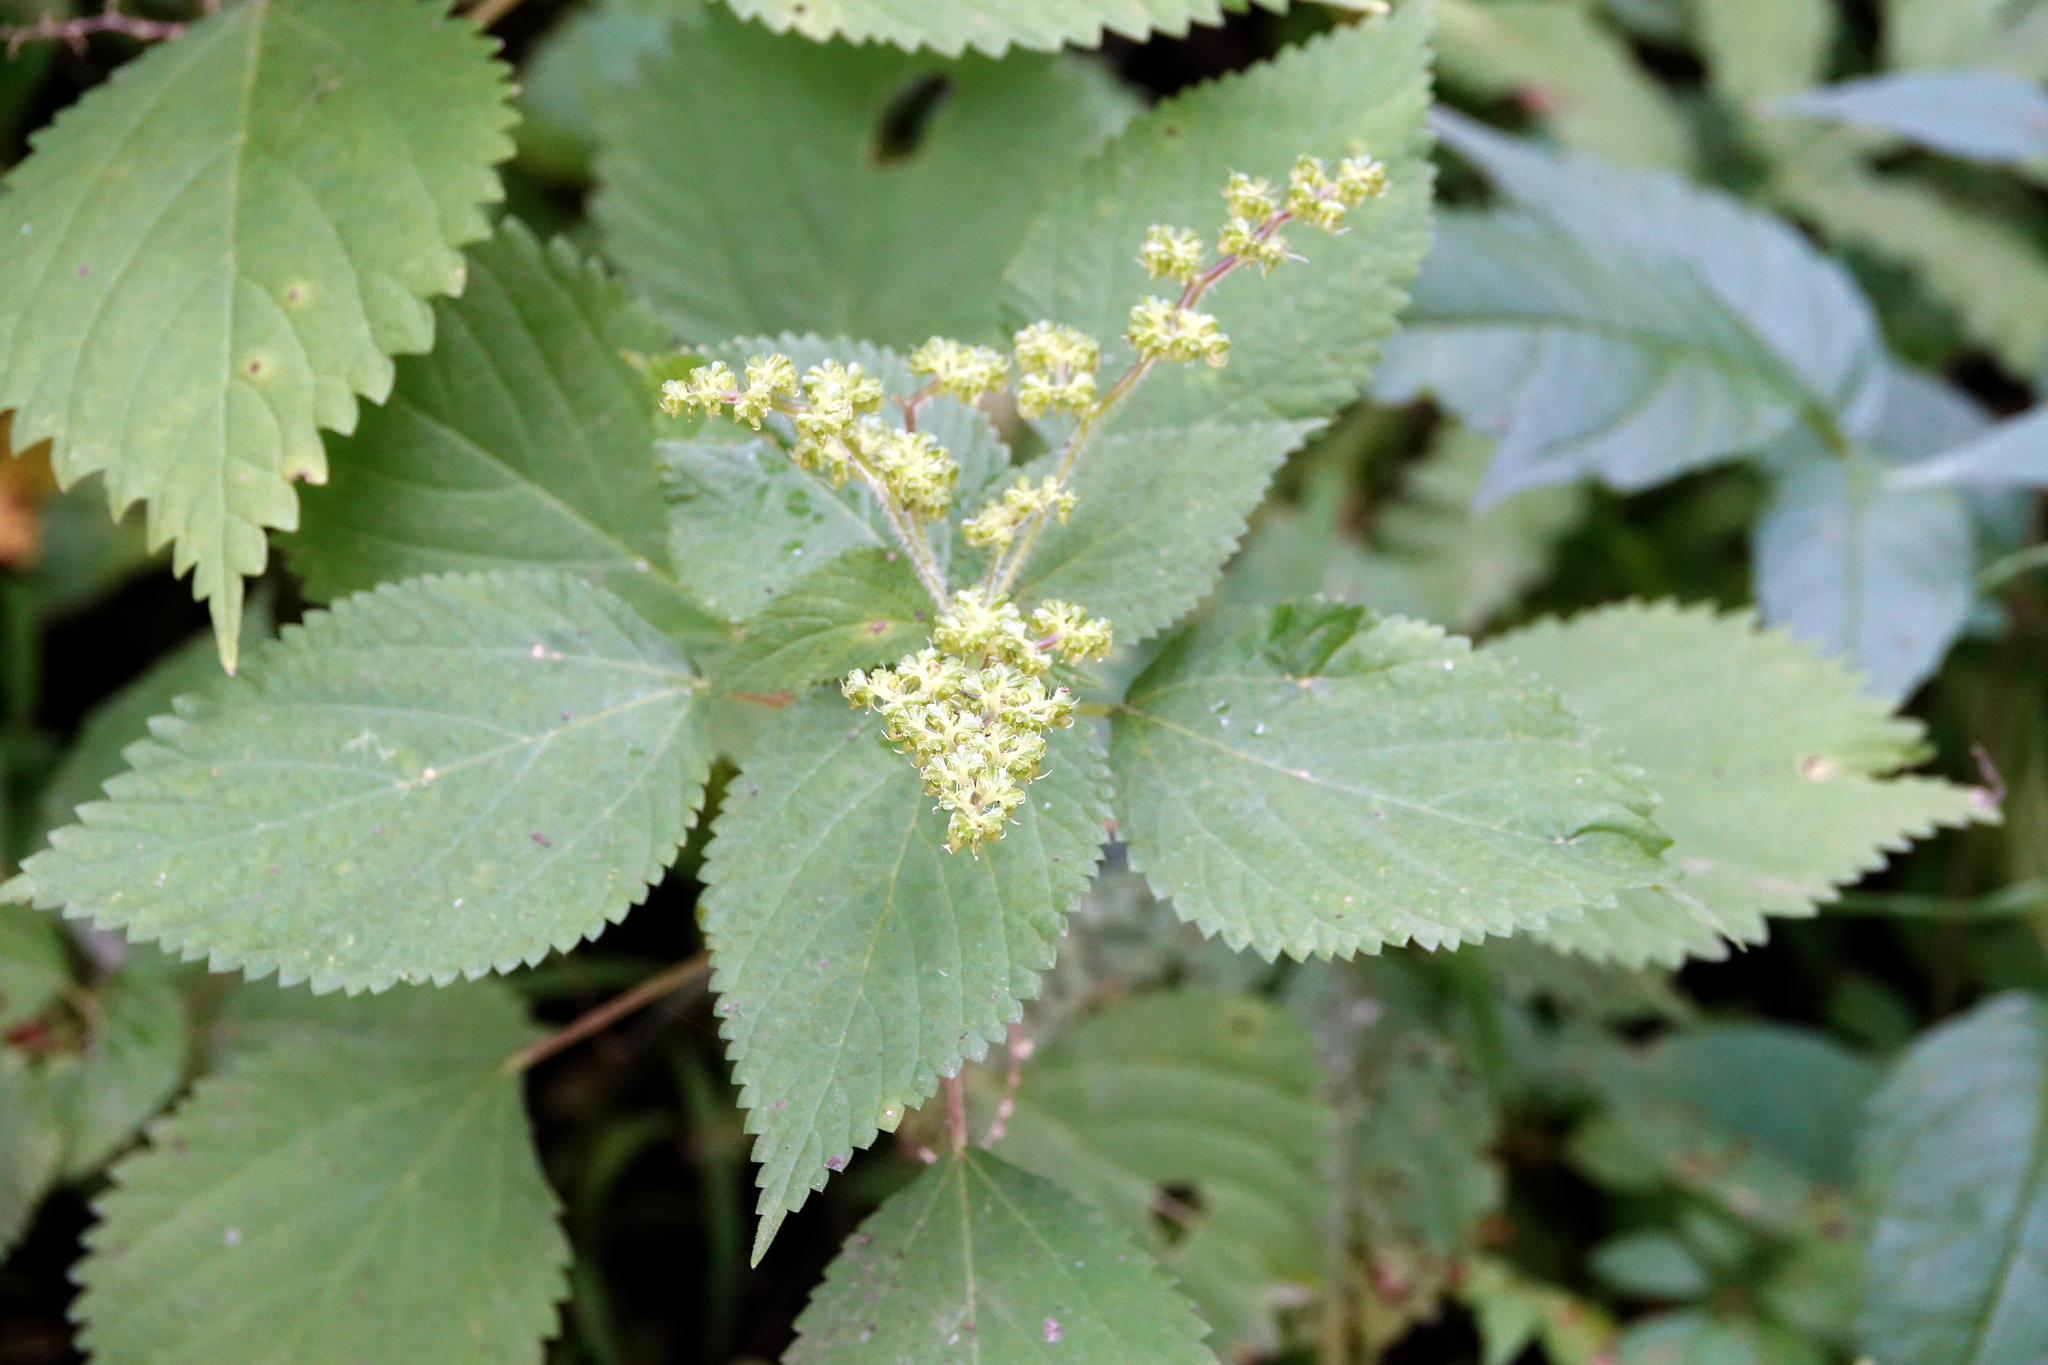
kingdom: Plantae
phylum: Tracheophyta
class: Magnoliopsida
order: Rosales
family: Urticaceae
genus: Laportea
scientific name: Laportea canadensis
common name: Canada nettle
